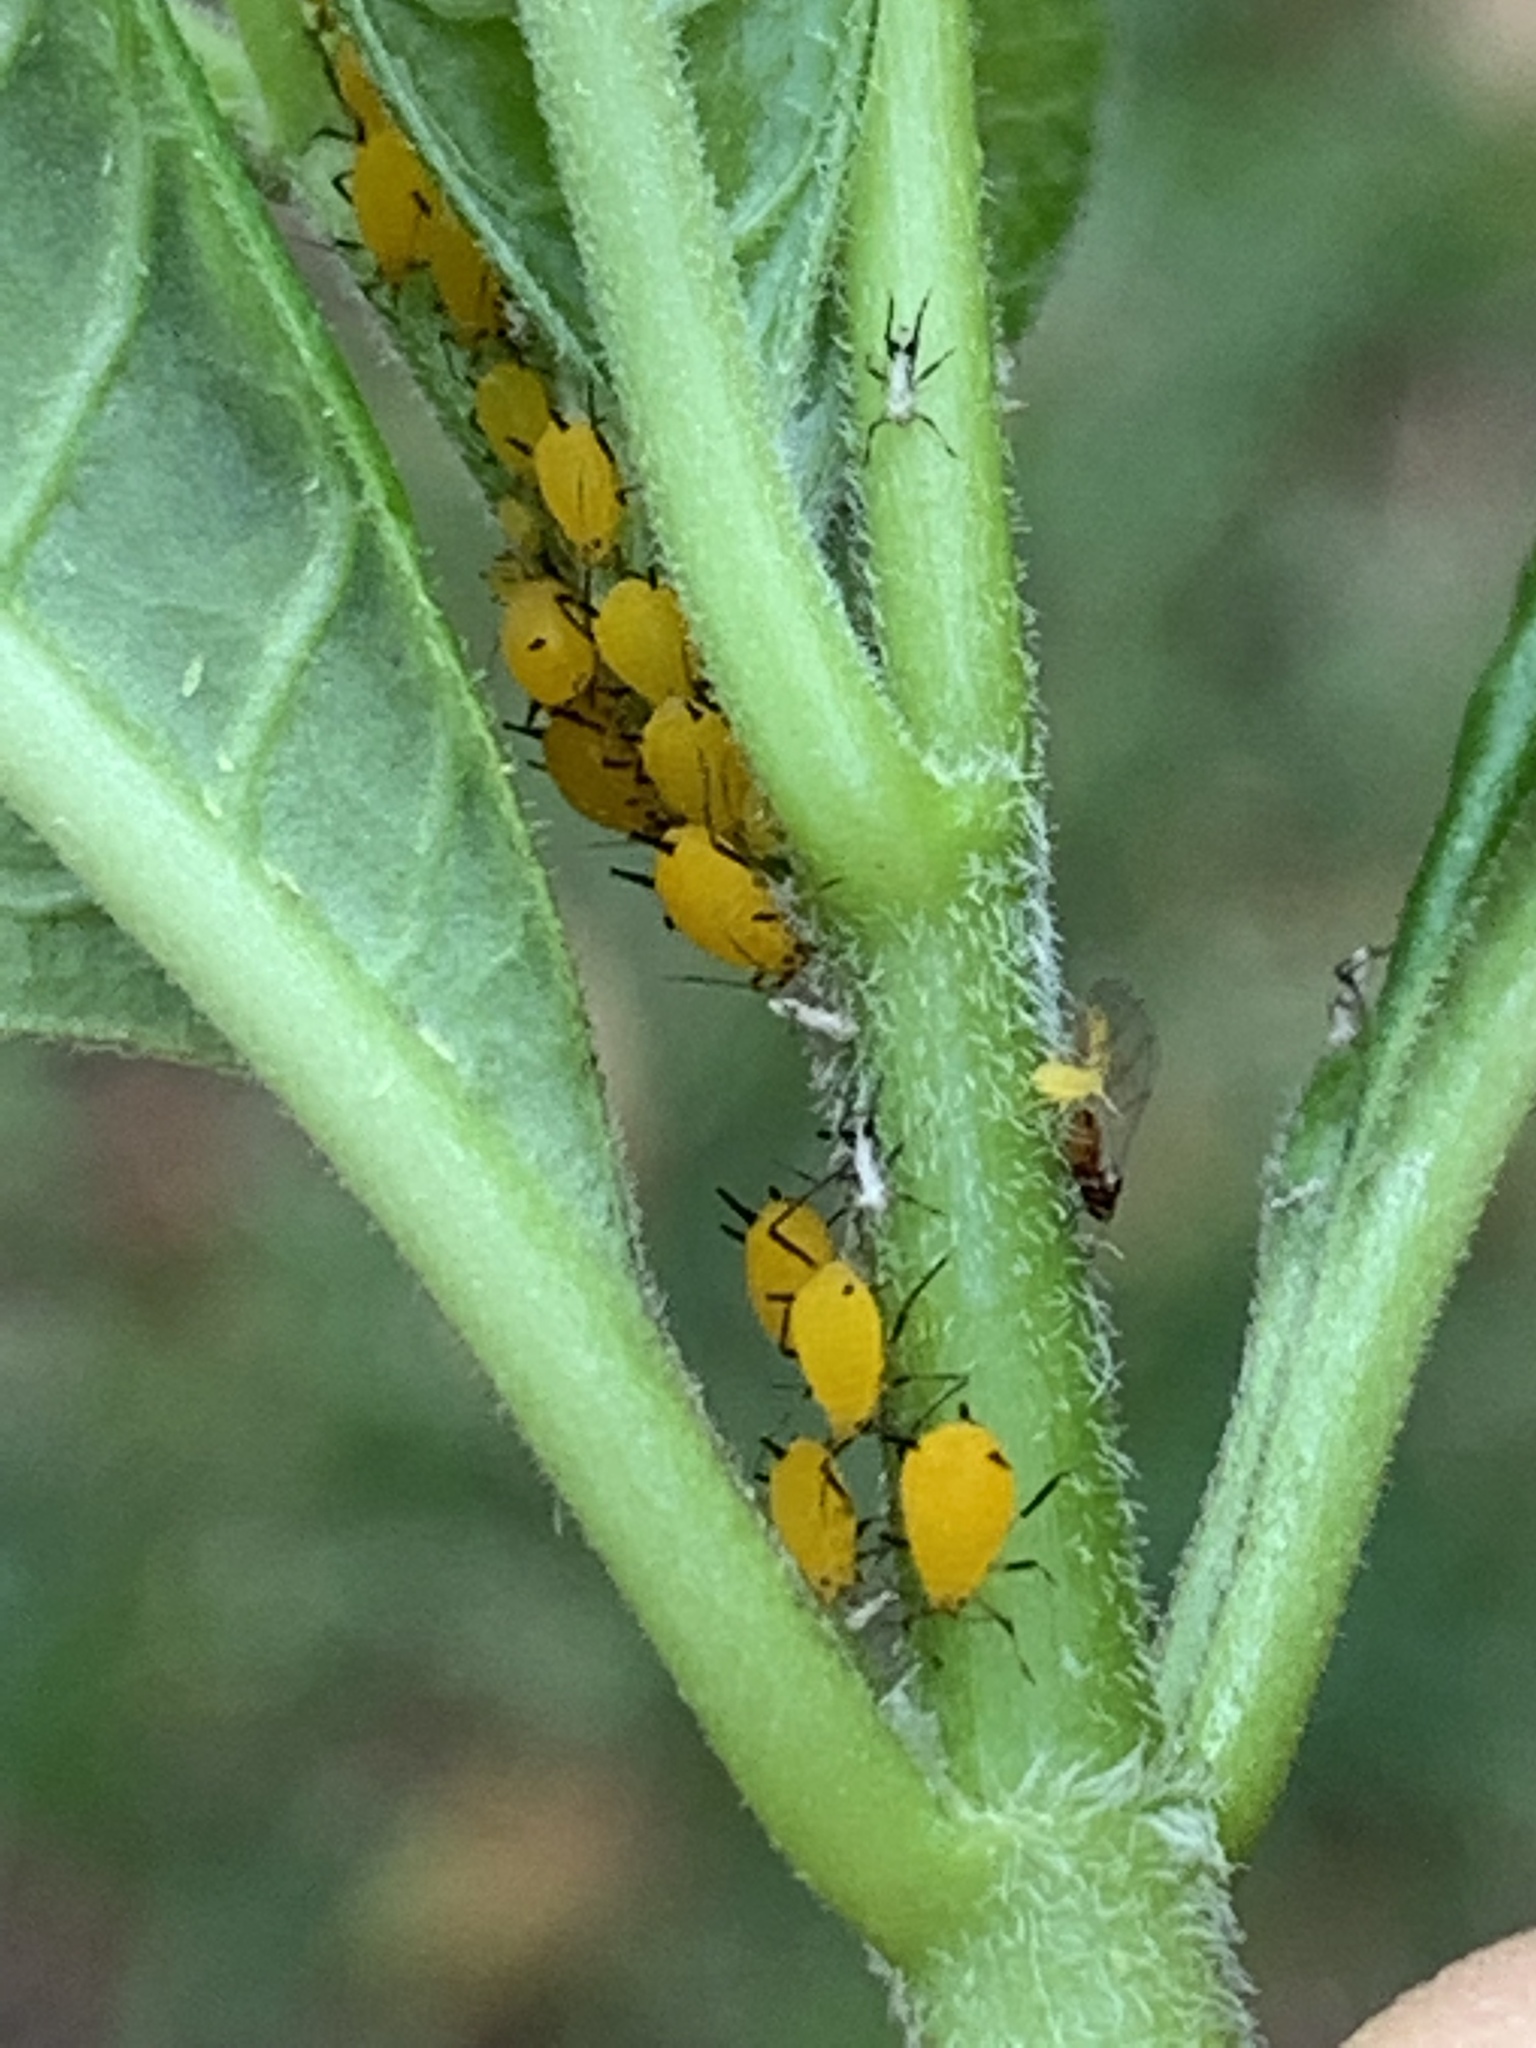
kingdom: Animalia
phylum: Arthropoda
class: Insecta
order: Hemiptera
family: Aphididae
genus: Aphis
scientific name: Aphis nerii
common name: Oleander aphid
